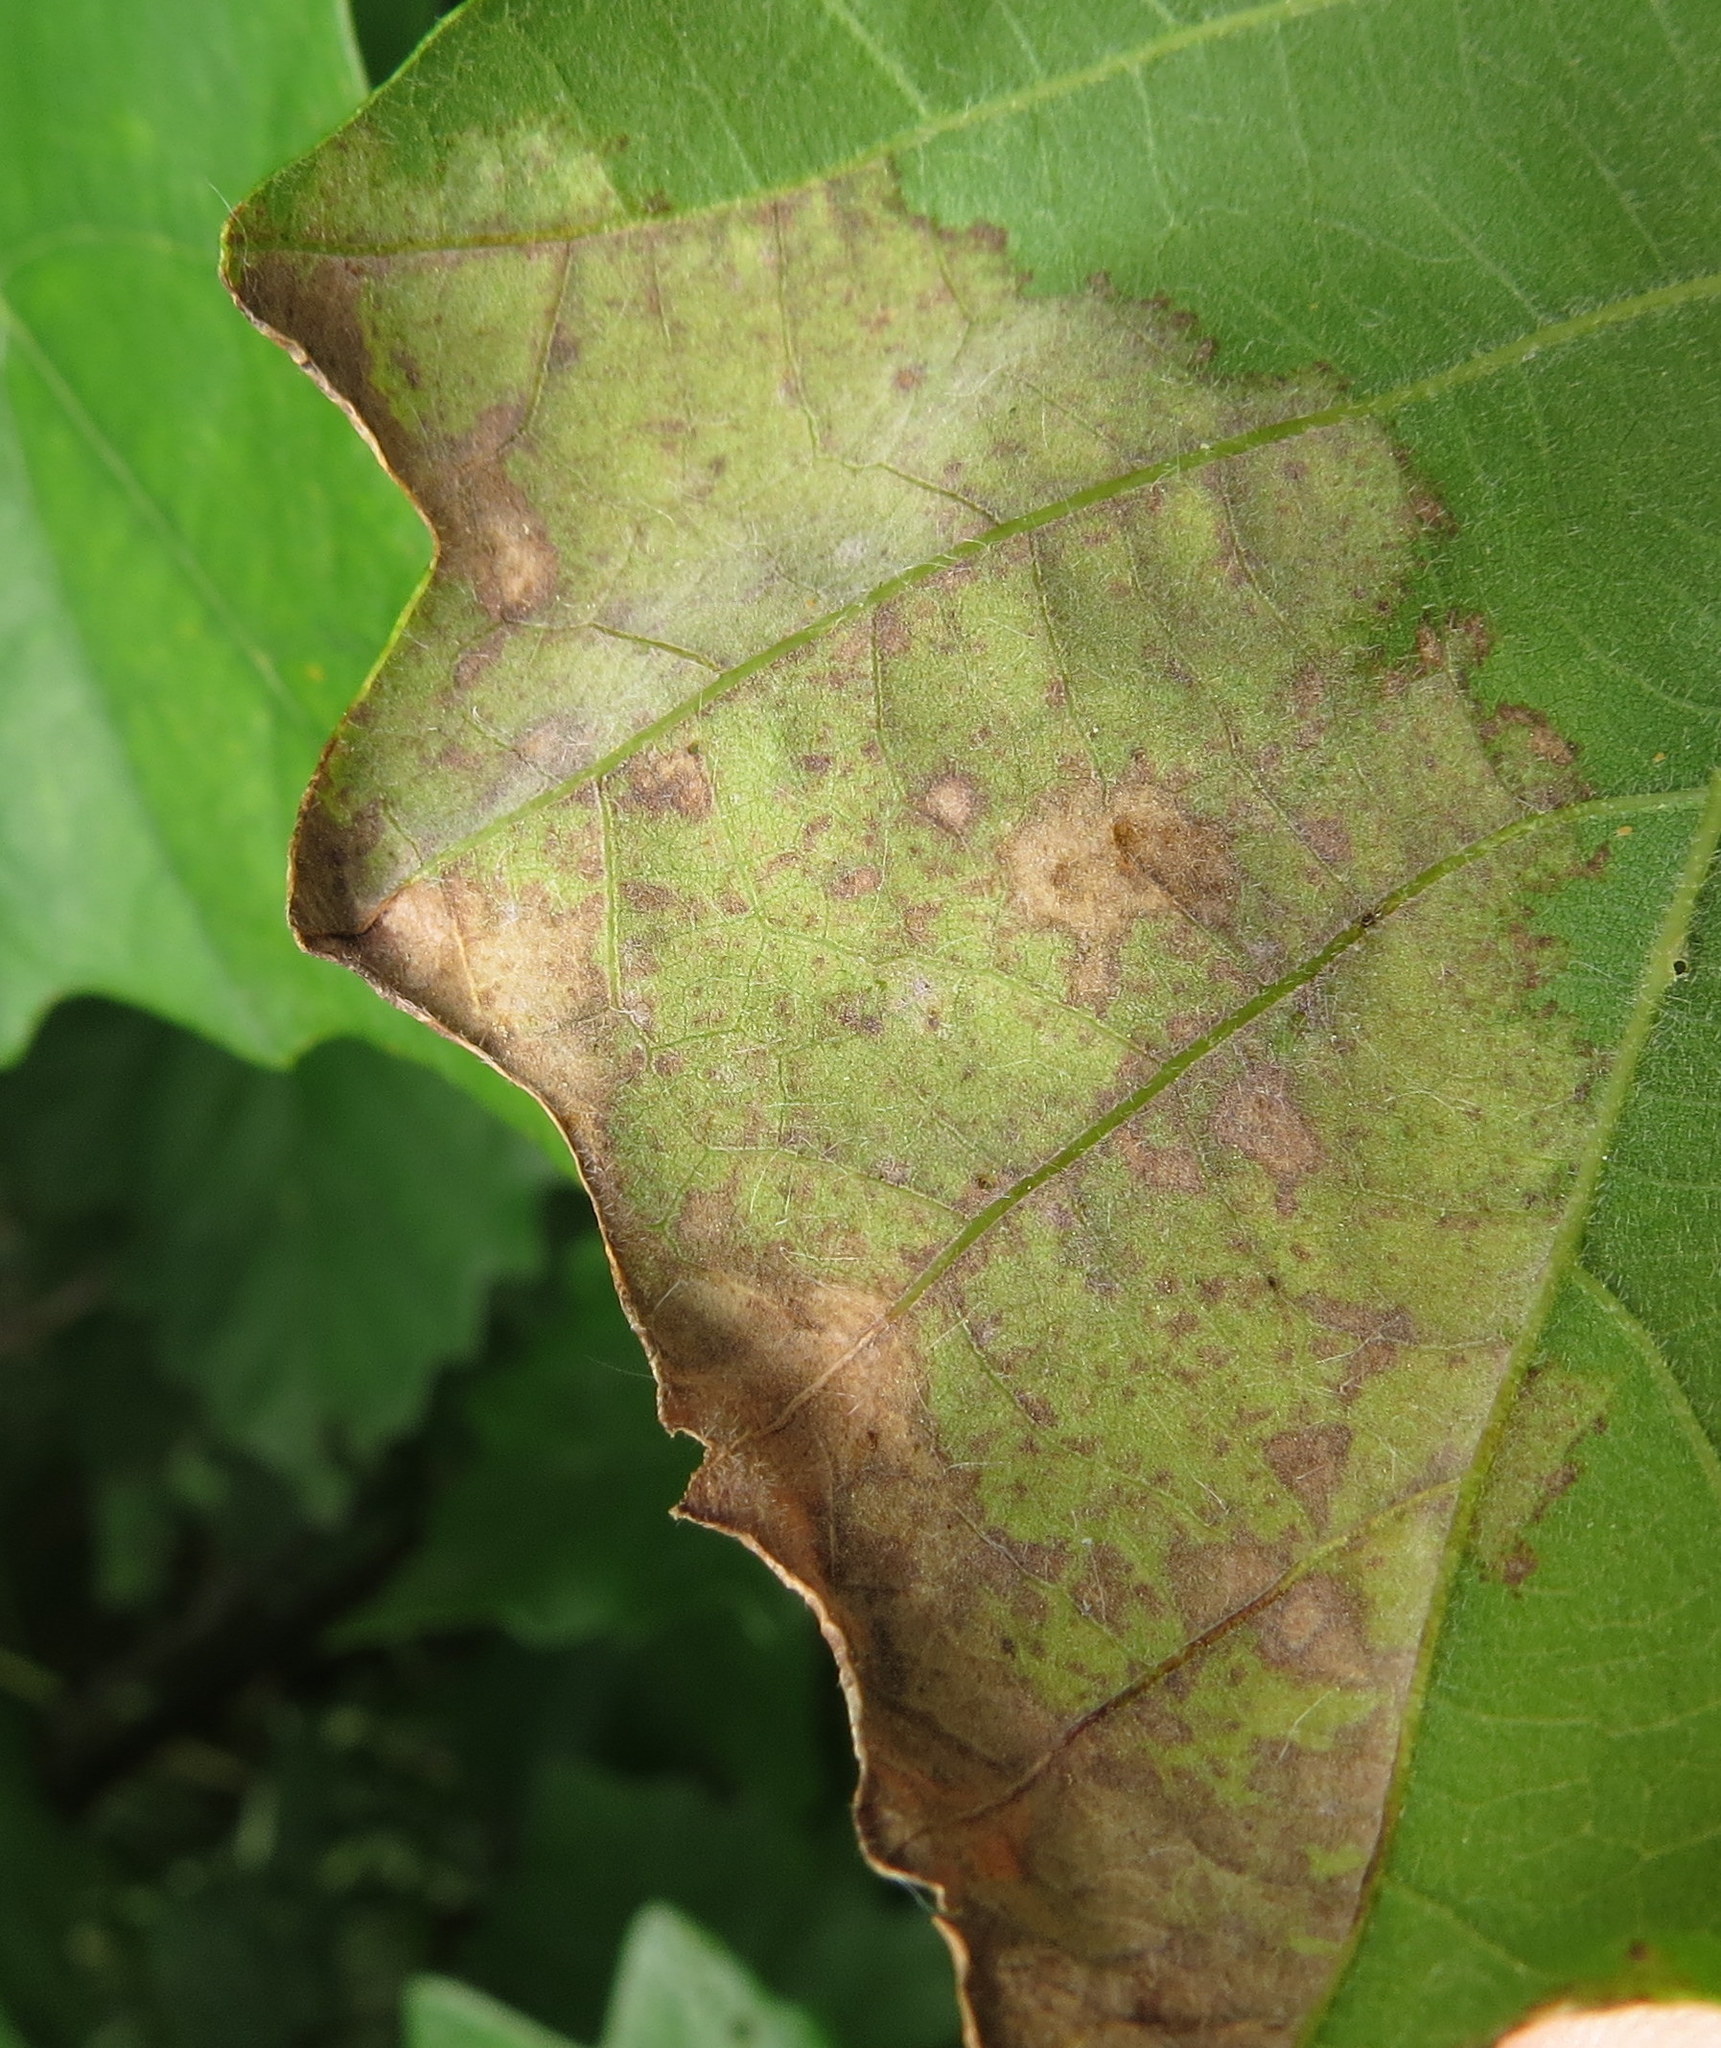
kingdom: Fungi
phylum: Ascomycota
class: Taphrinomycetes
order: Taphrinales
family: Taphrinaceae
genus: Taphrina
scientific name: Taphrina caerulescens
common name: Oak leaf blister
